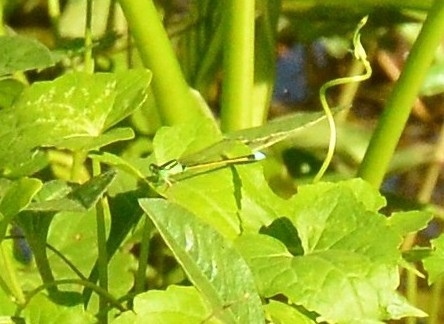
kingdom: Animalia
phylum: Arthropoda
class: Insecta
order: Odonata
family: Coenagrionidae
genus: Ischnura
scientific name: Ischnura senegalensis
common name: Tropical bluetail
